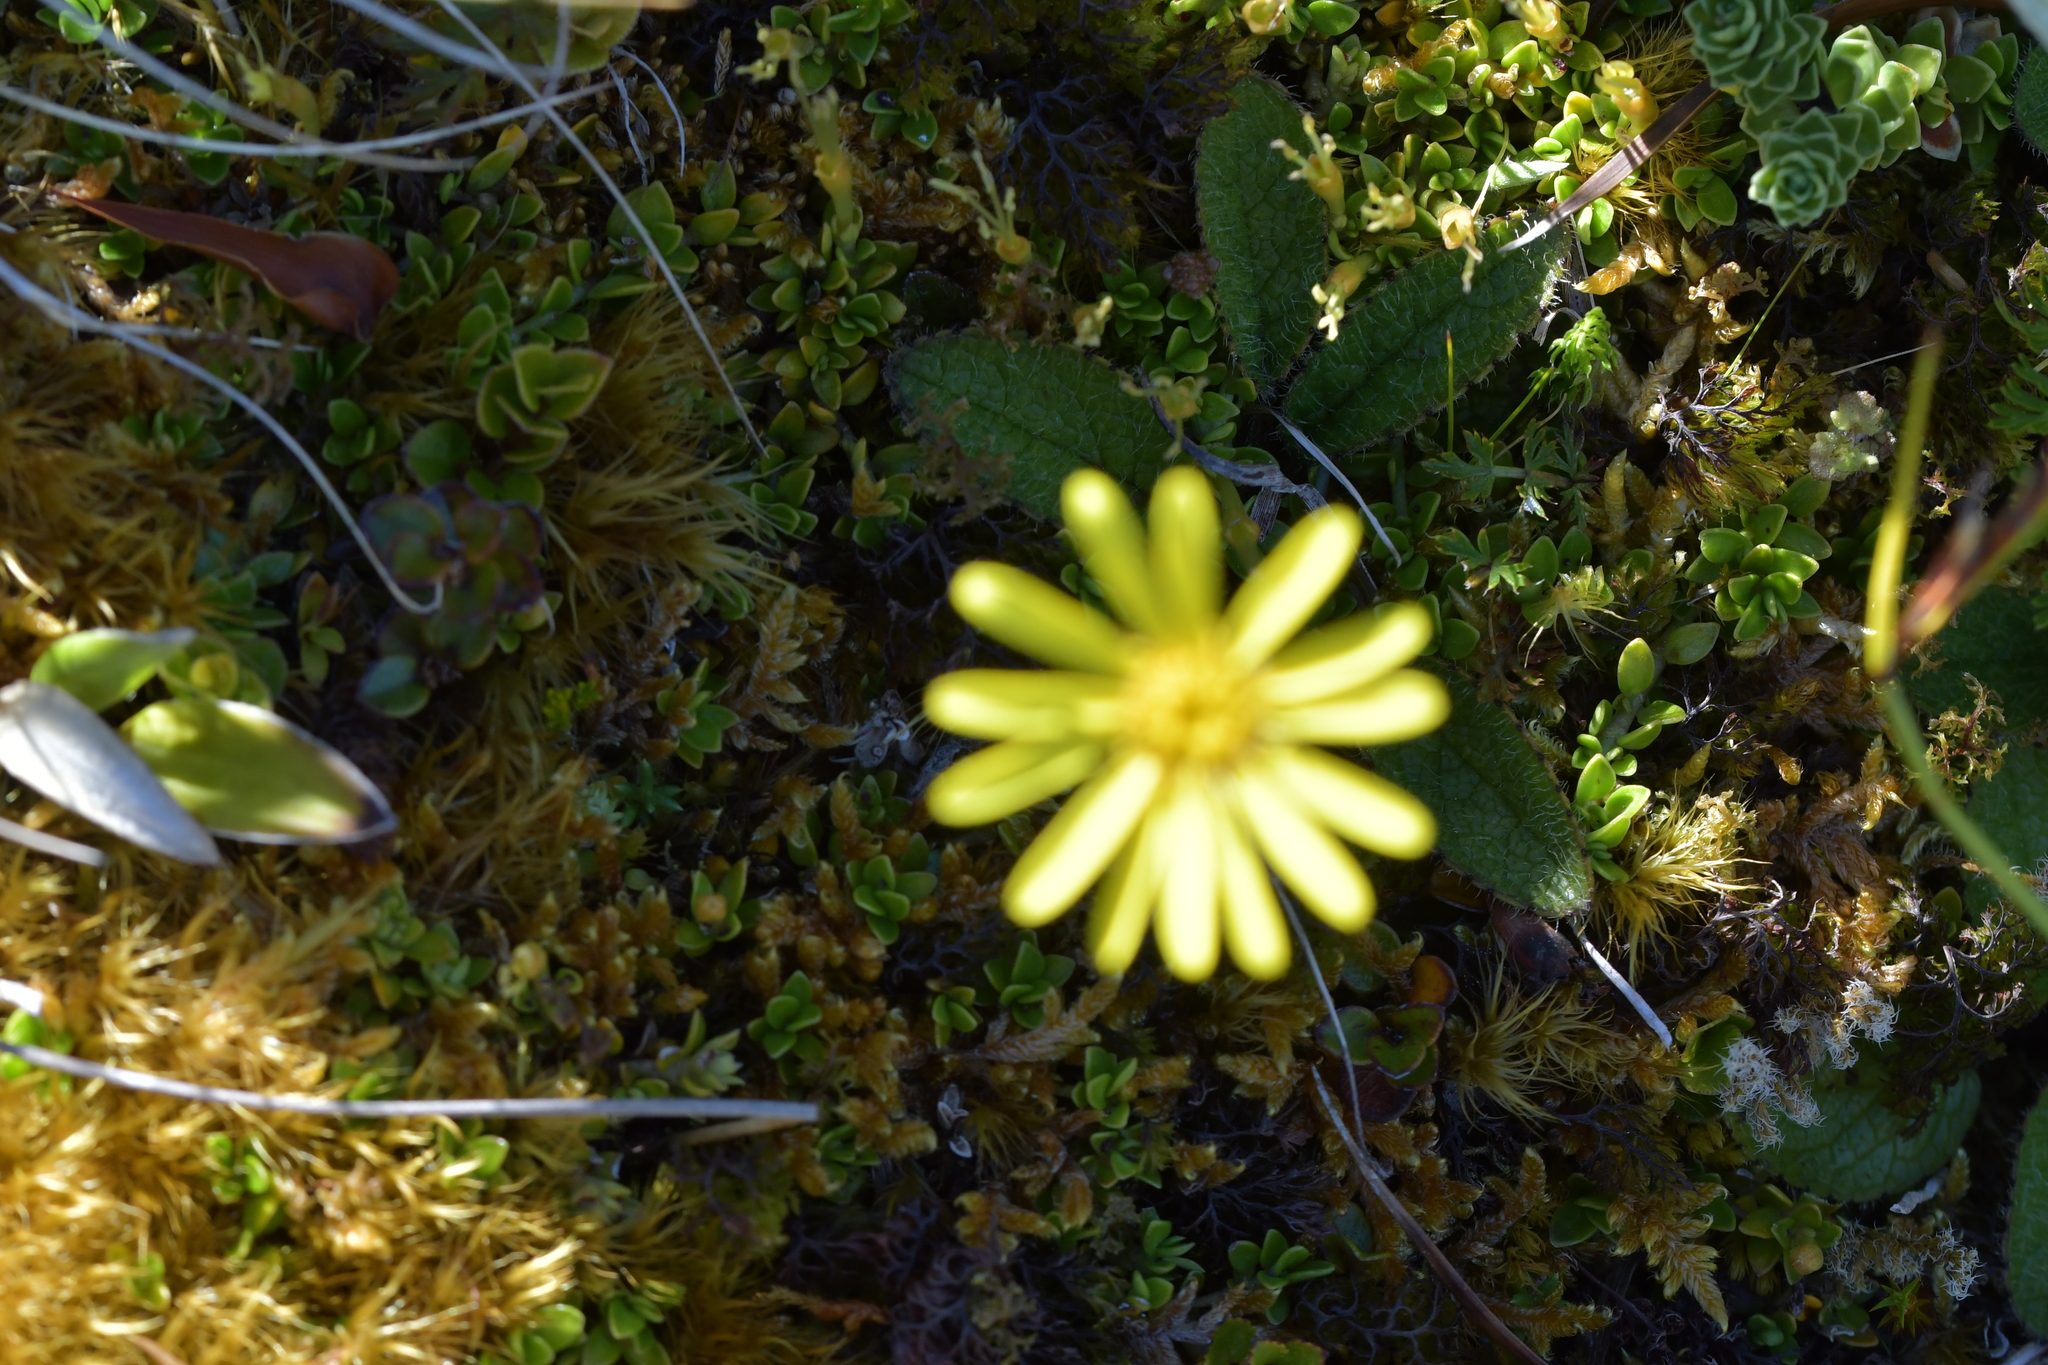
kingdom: Plantae
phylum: Tracheophyta
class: Magnoliopsida
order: Asterales
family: Asteraceae
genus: Brachyglottis
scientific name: Brachyglottis bellidioides
